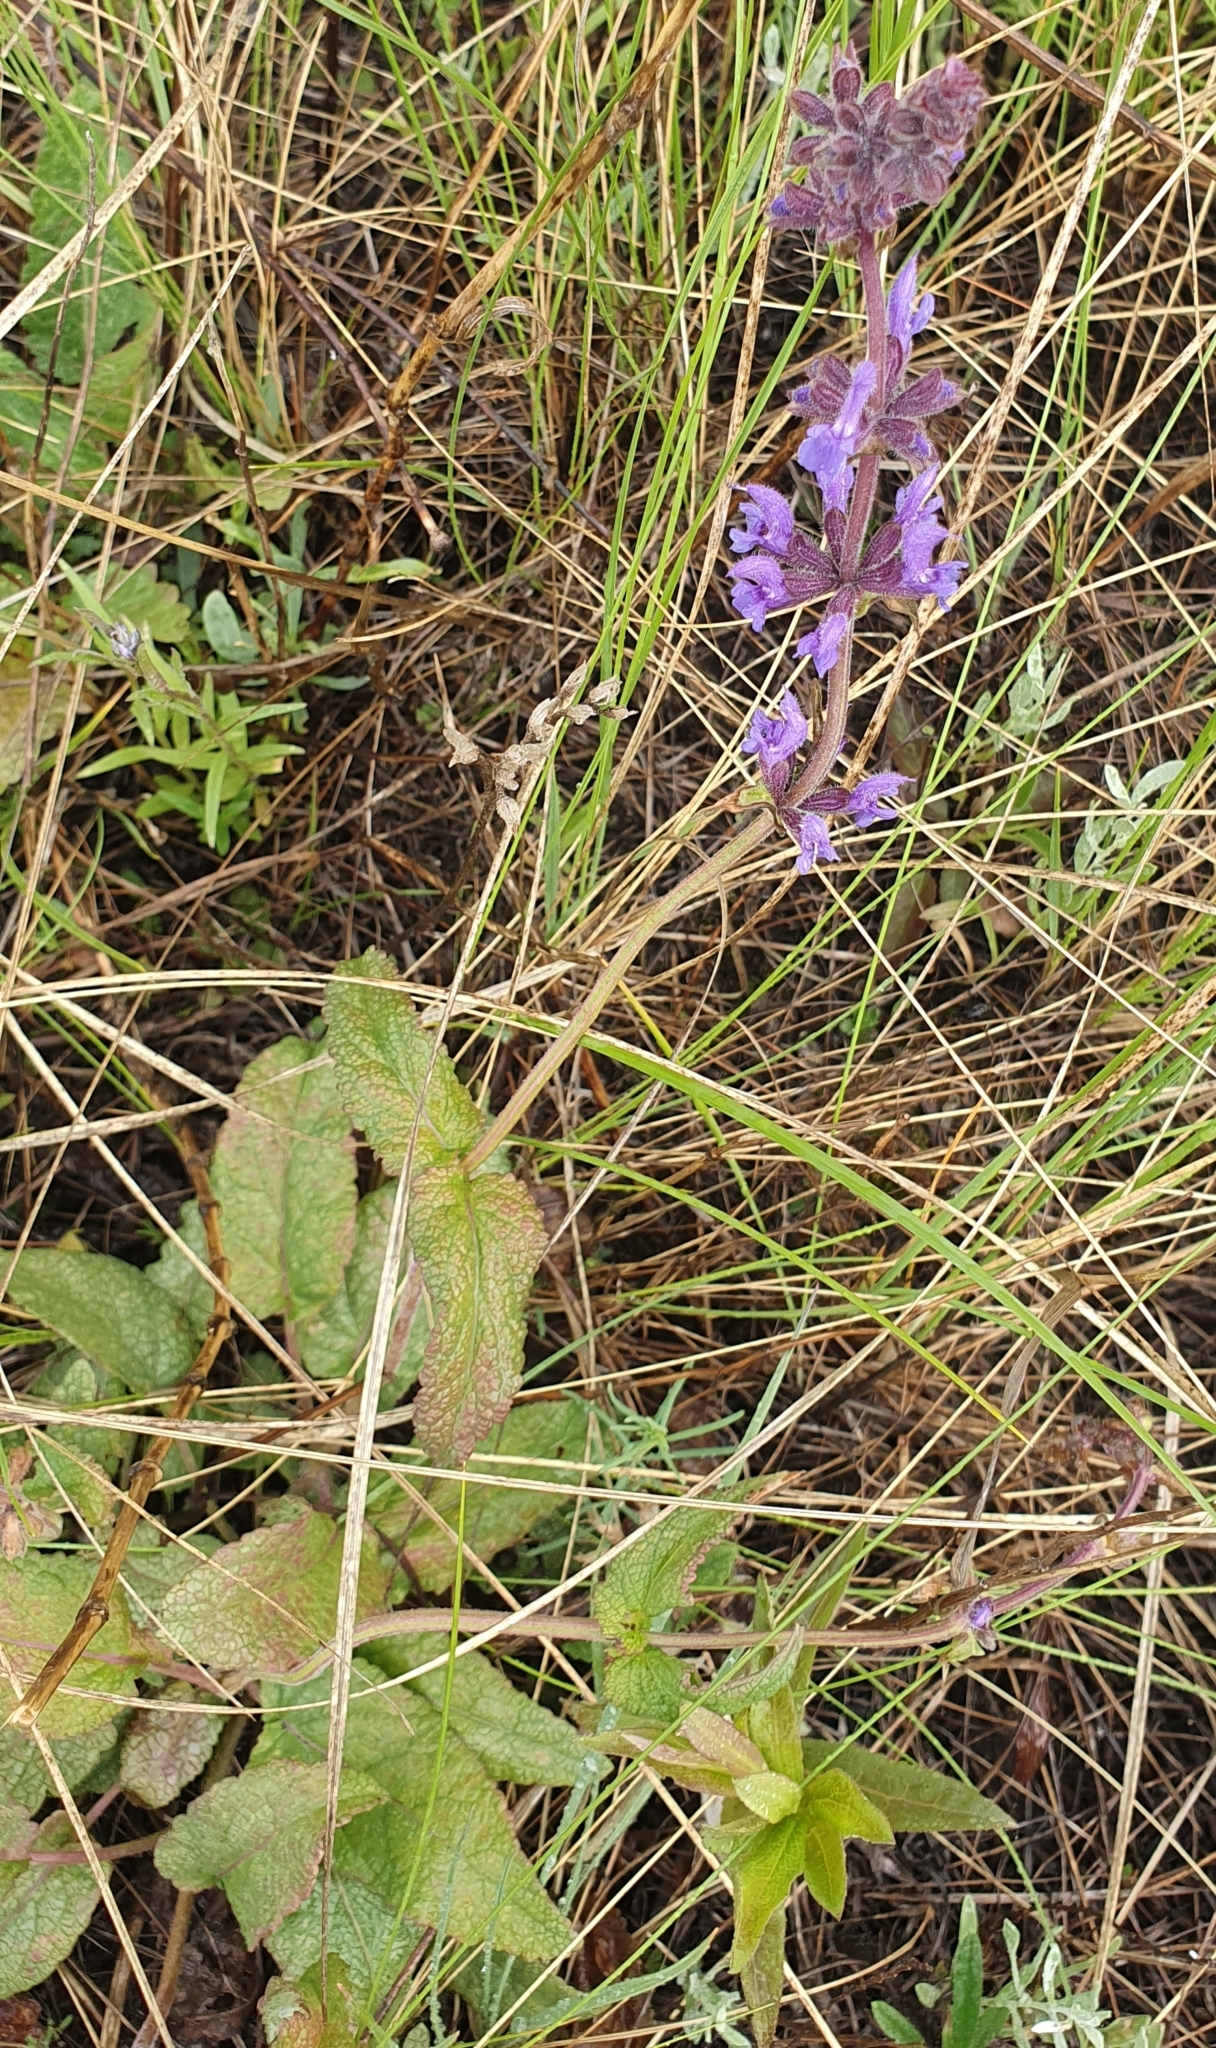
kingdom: Plantae
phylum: Tracheophyta
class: Magnoliopsida
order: Lamiales
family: Lamiaceae
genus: Salvia
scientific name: Salvia verticillata
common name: Whorled clary
